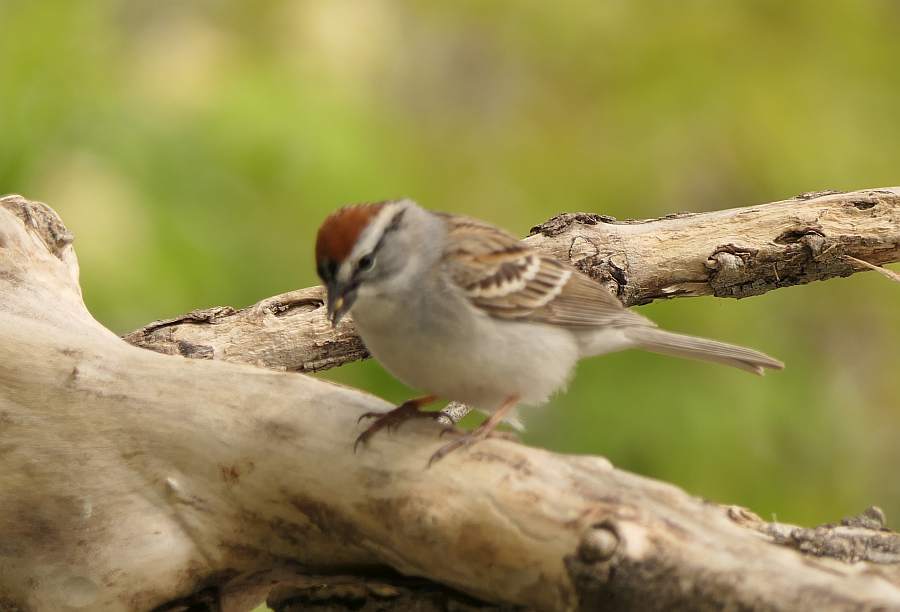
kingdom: Animalia
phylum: Chordata
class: Aves
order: Passeriformes
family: Passerellidae
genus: Spizella
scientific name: Spizella passerina
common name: Chipping sparrow
